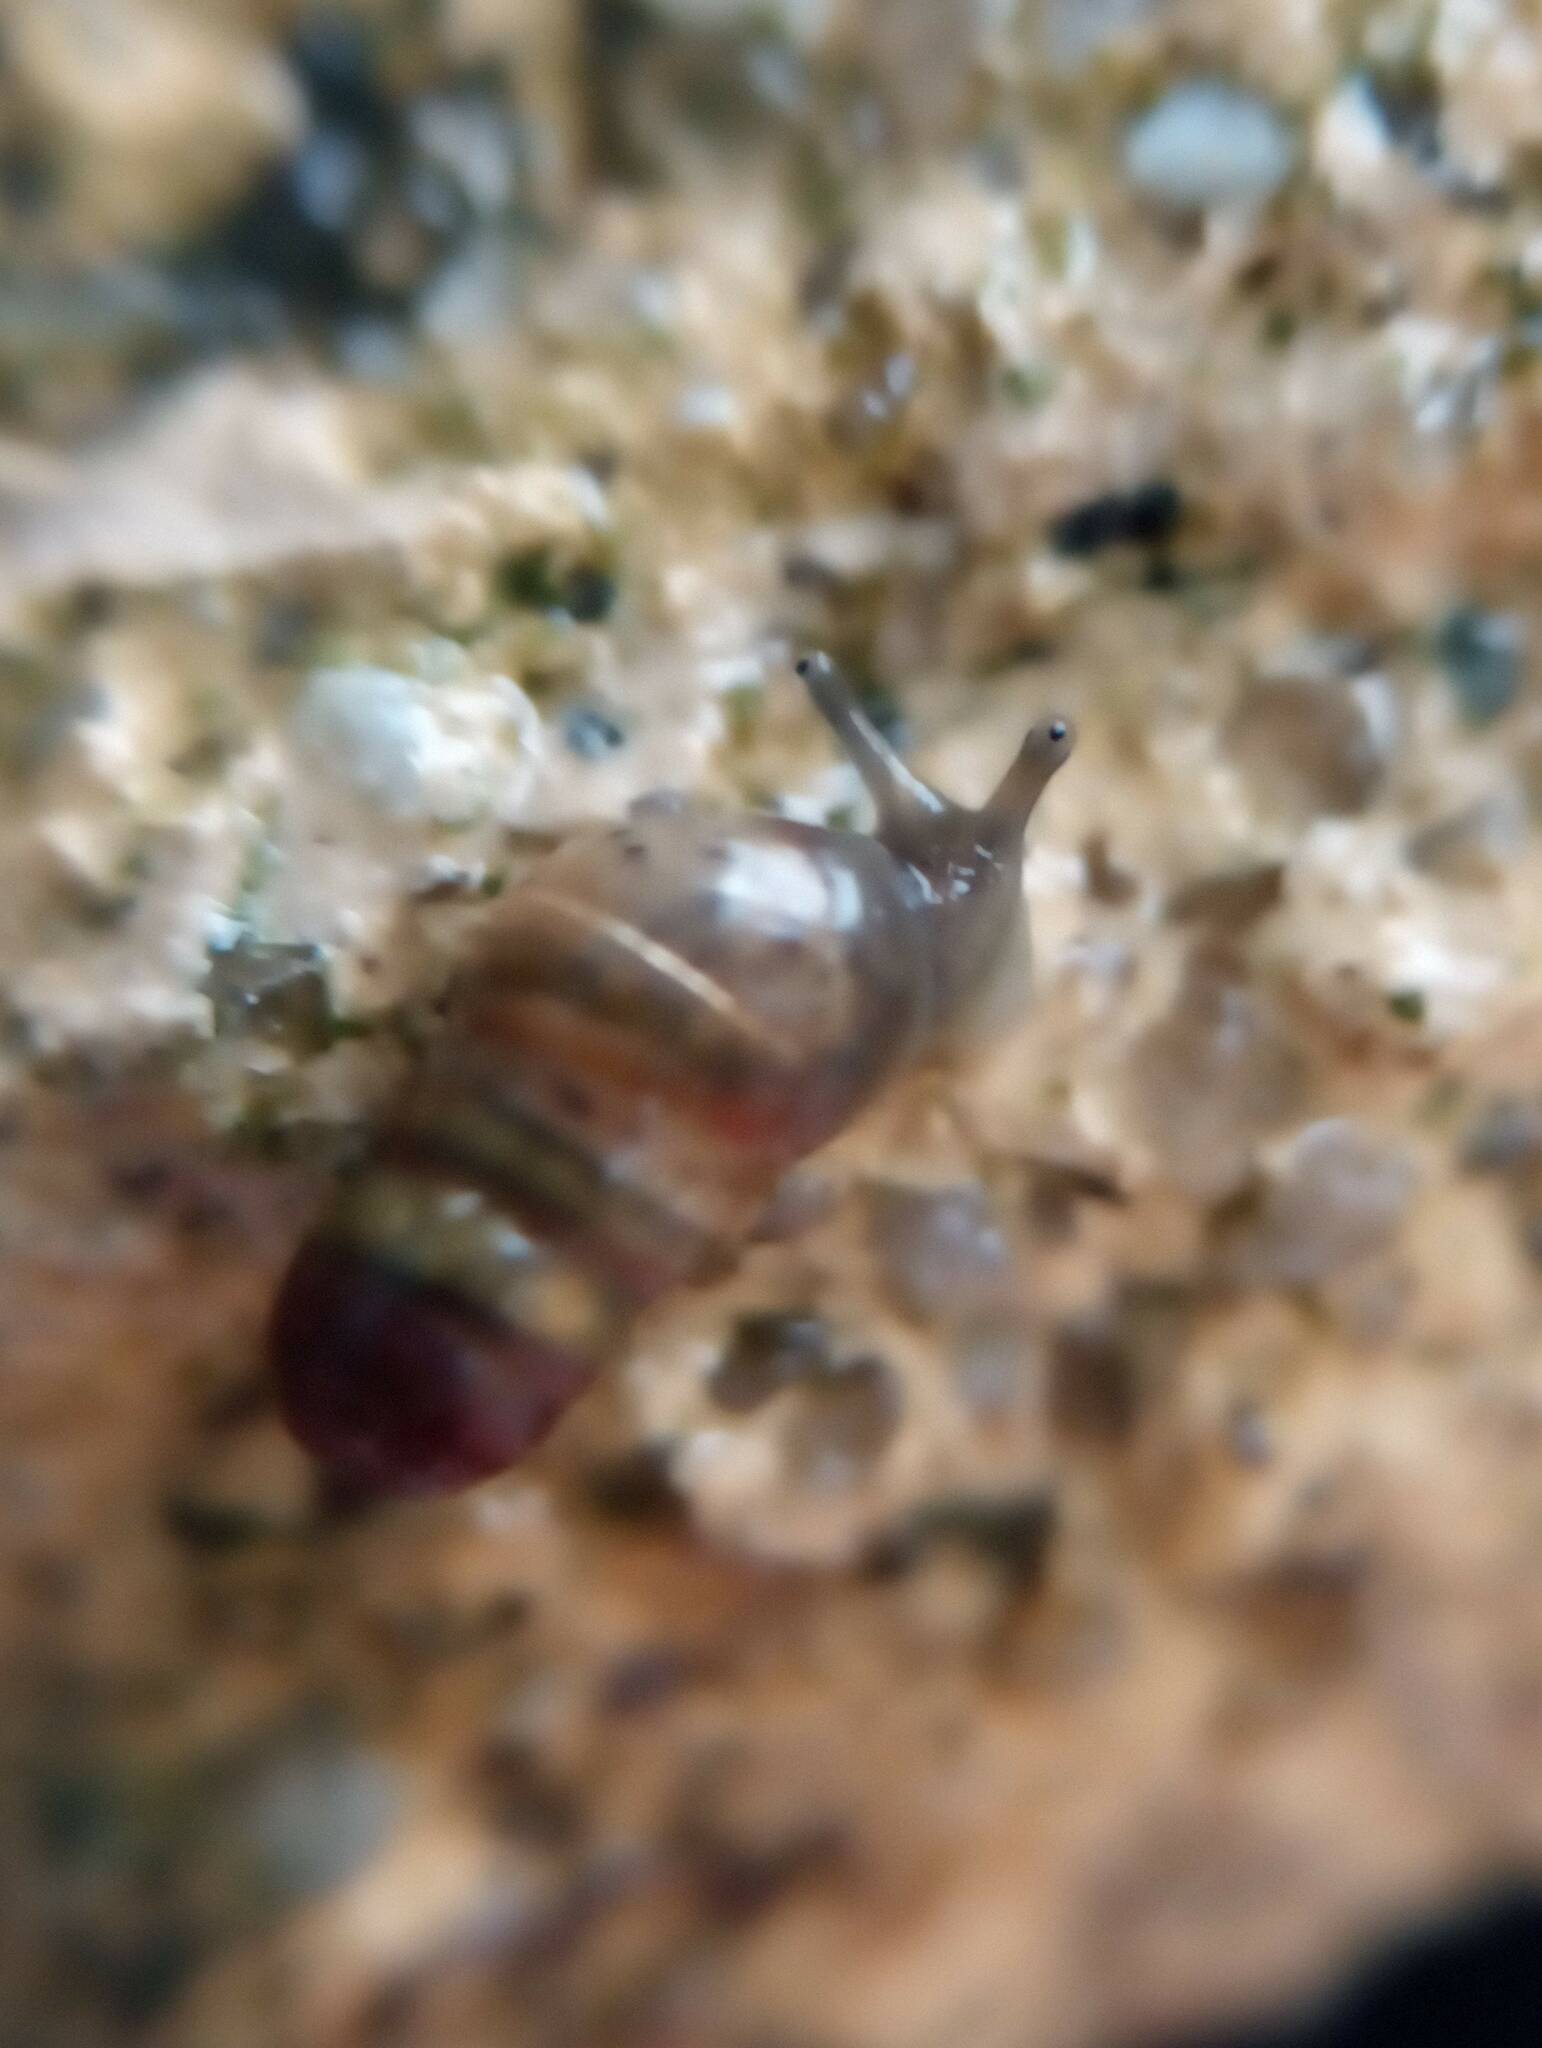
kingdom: Animalia
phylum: Mollusca
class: Gastropoda
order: Stylommatophora
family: Achatinidae
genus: Rumina
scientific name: Rumina decollata
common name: Decollate snail
